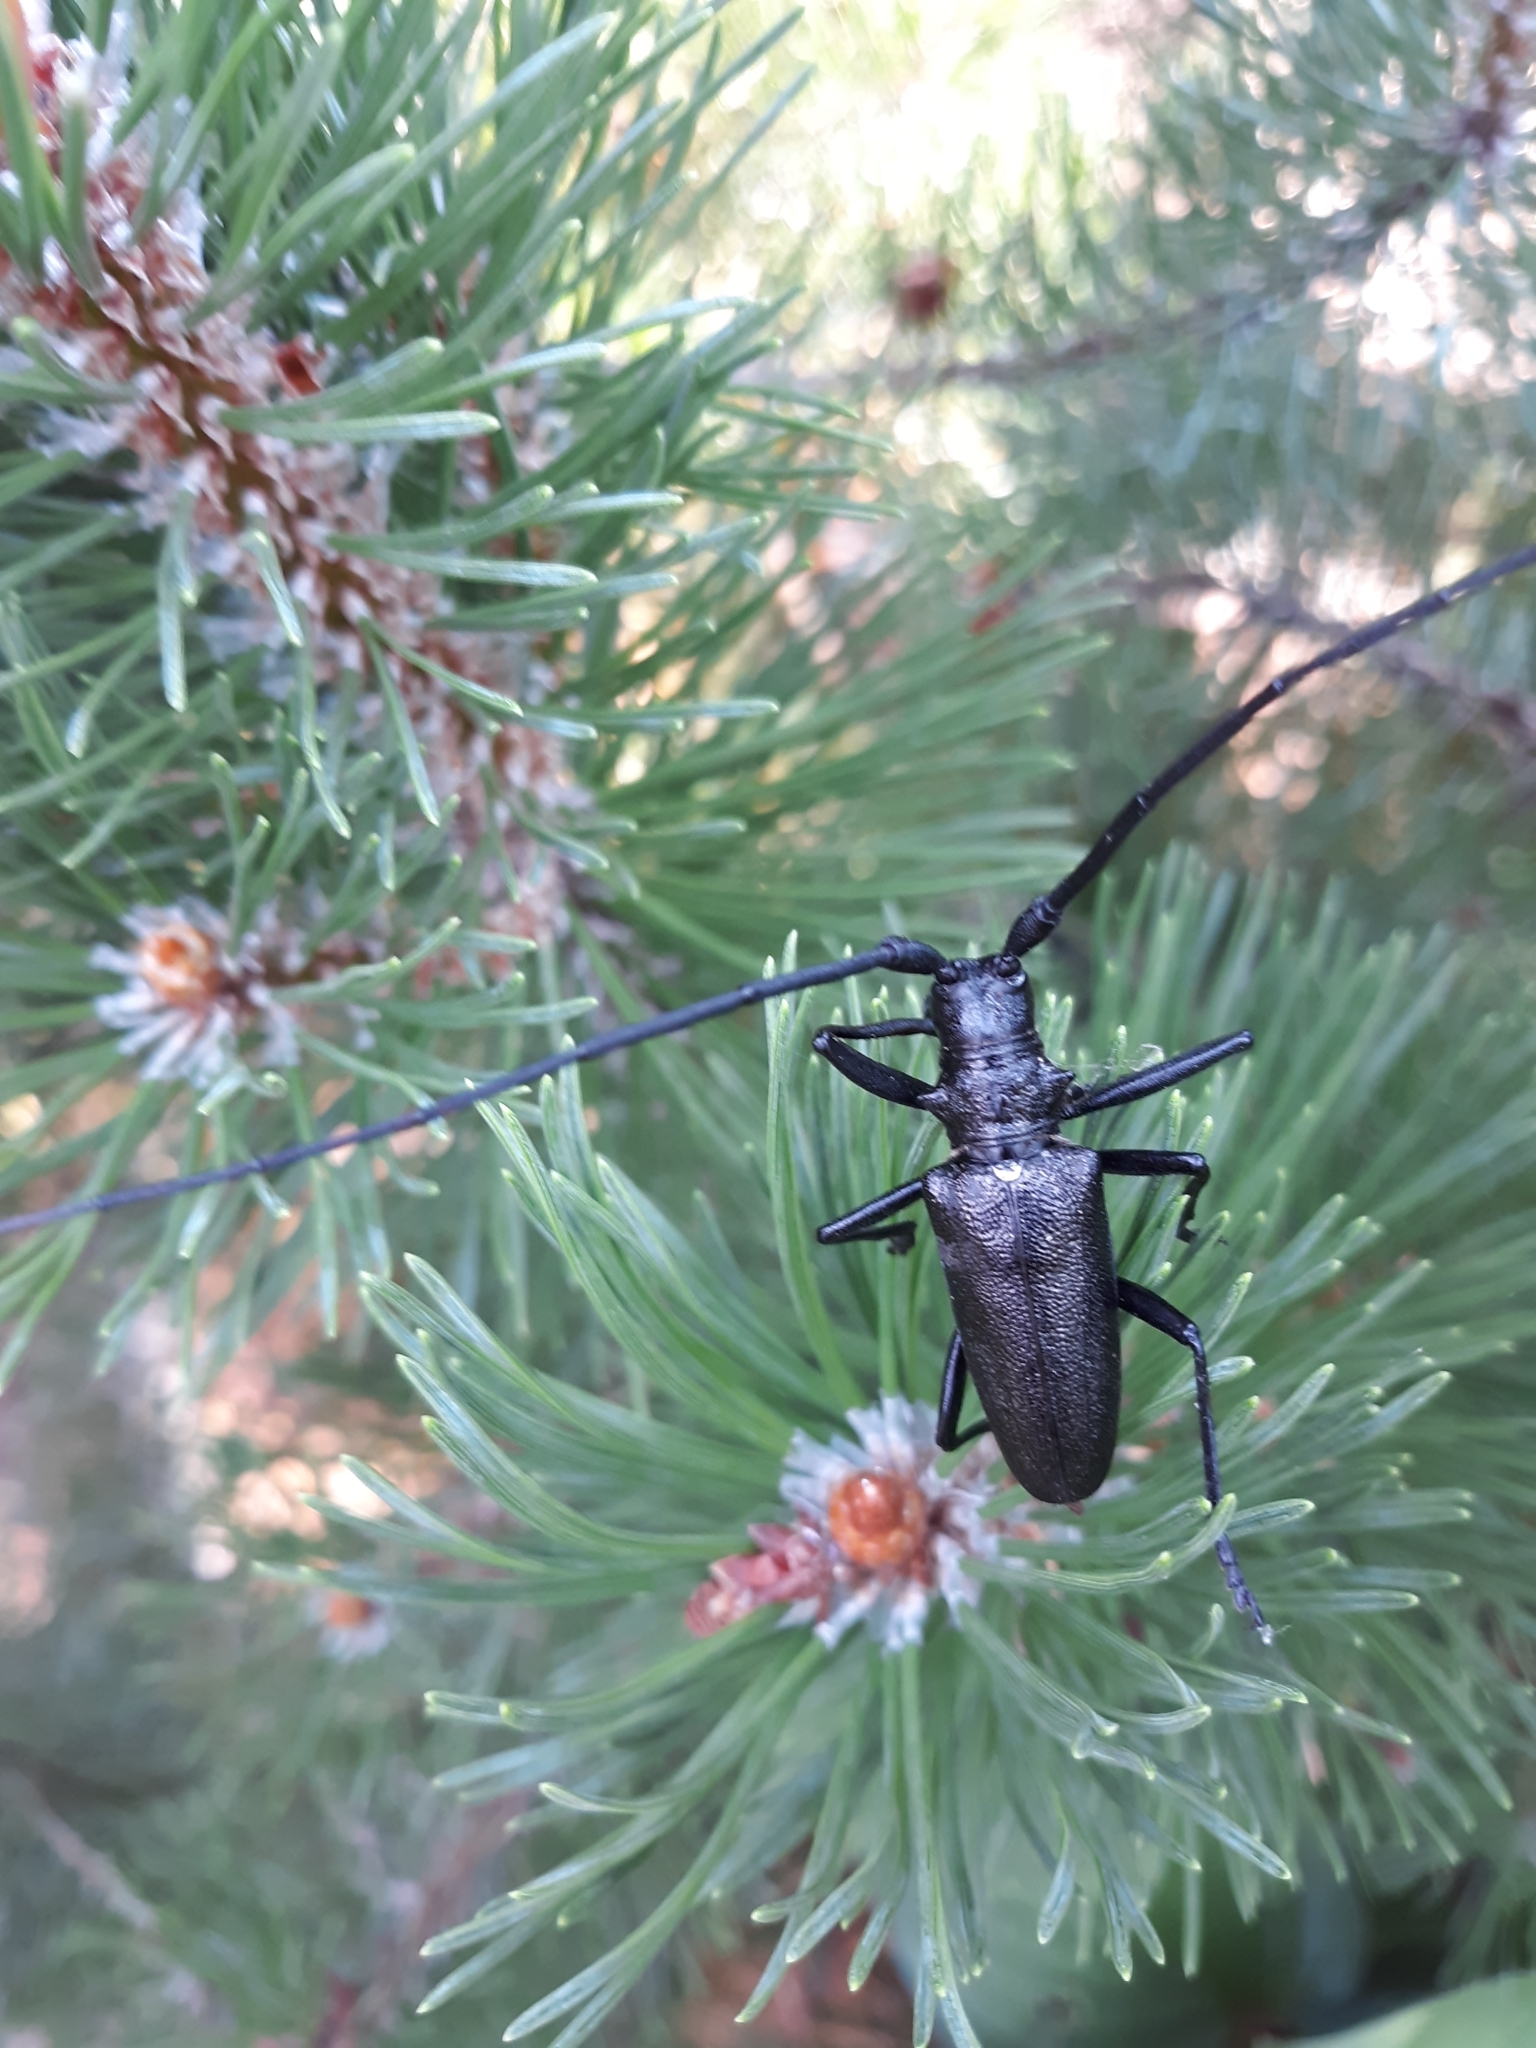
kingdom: Animalia
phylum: Arthropoda
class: Insecta
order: Coleoptera
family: Cerambycidae
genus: Monochamus
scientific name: Monochamus scutellatus
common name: White-spotted sawyer beetle
